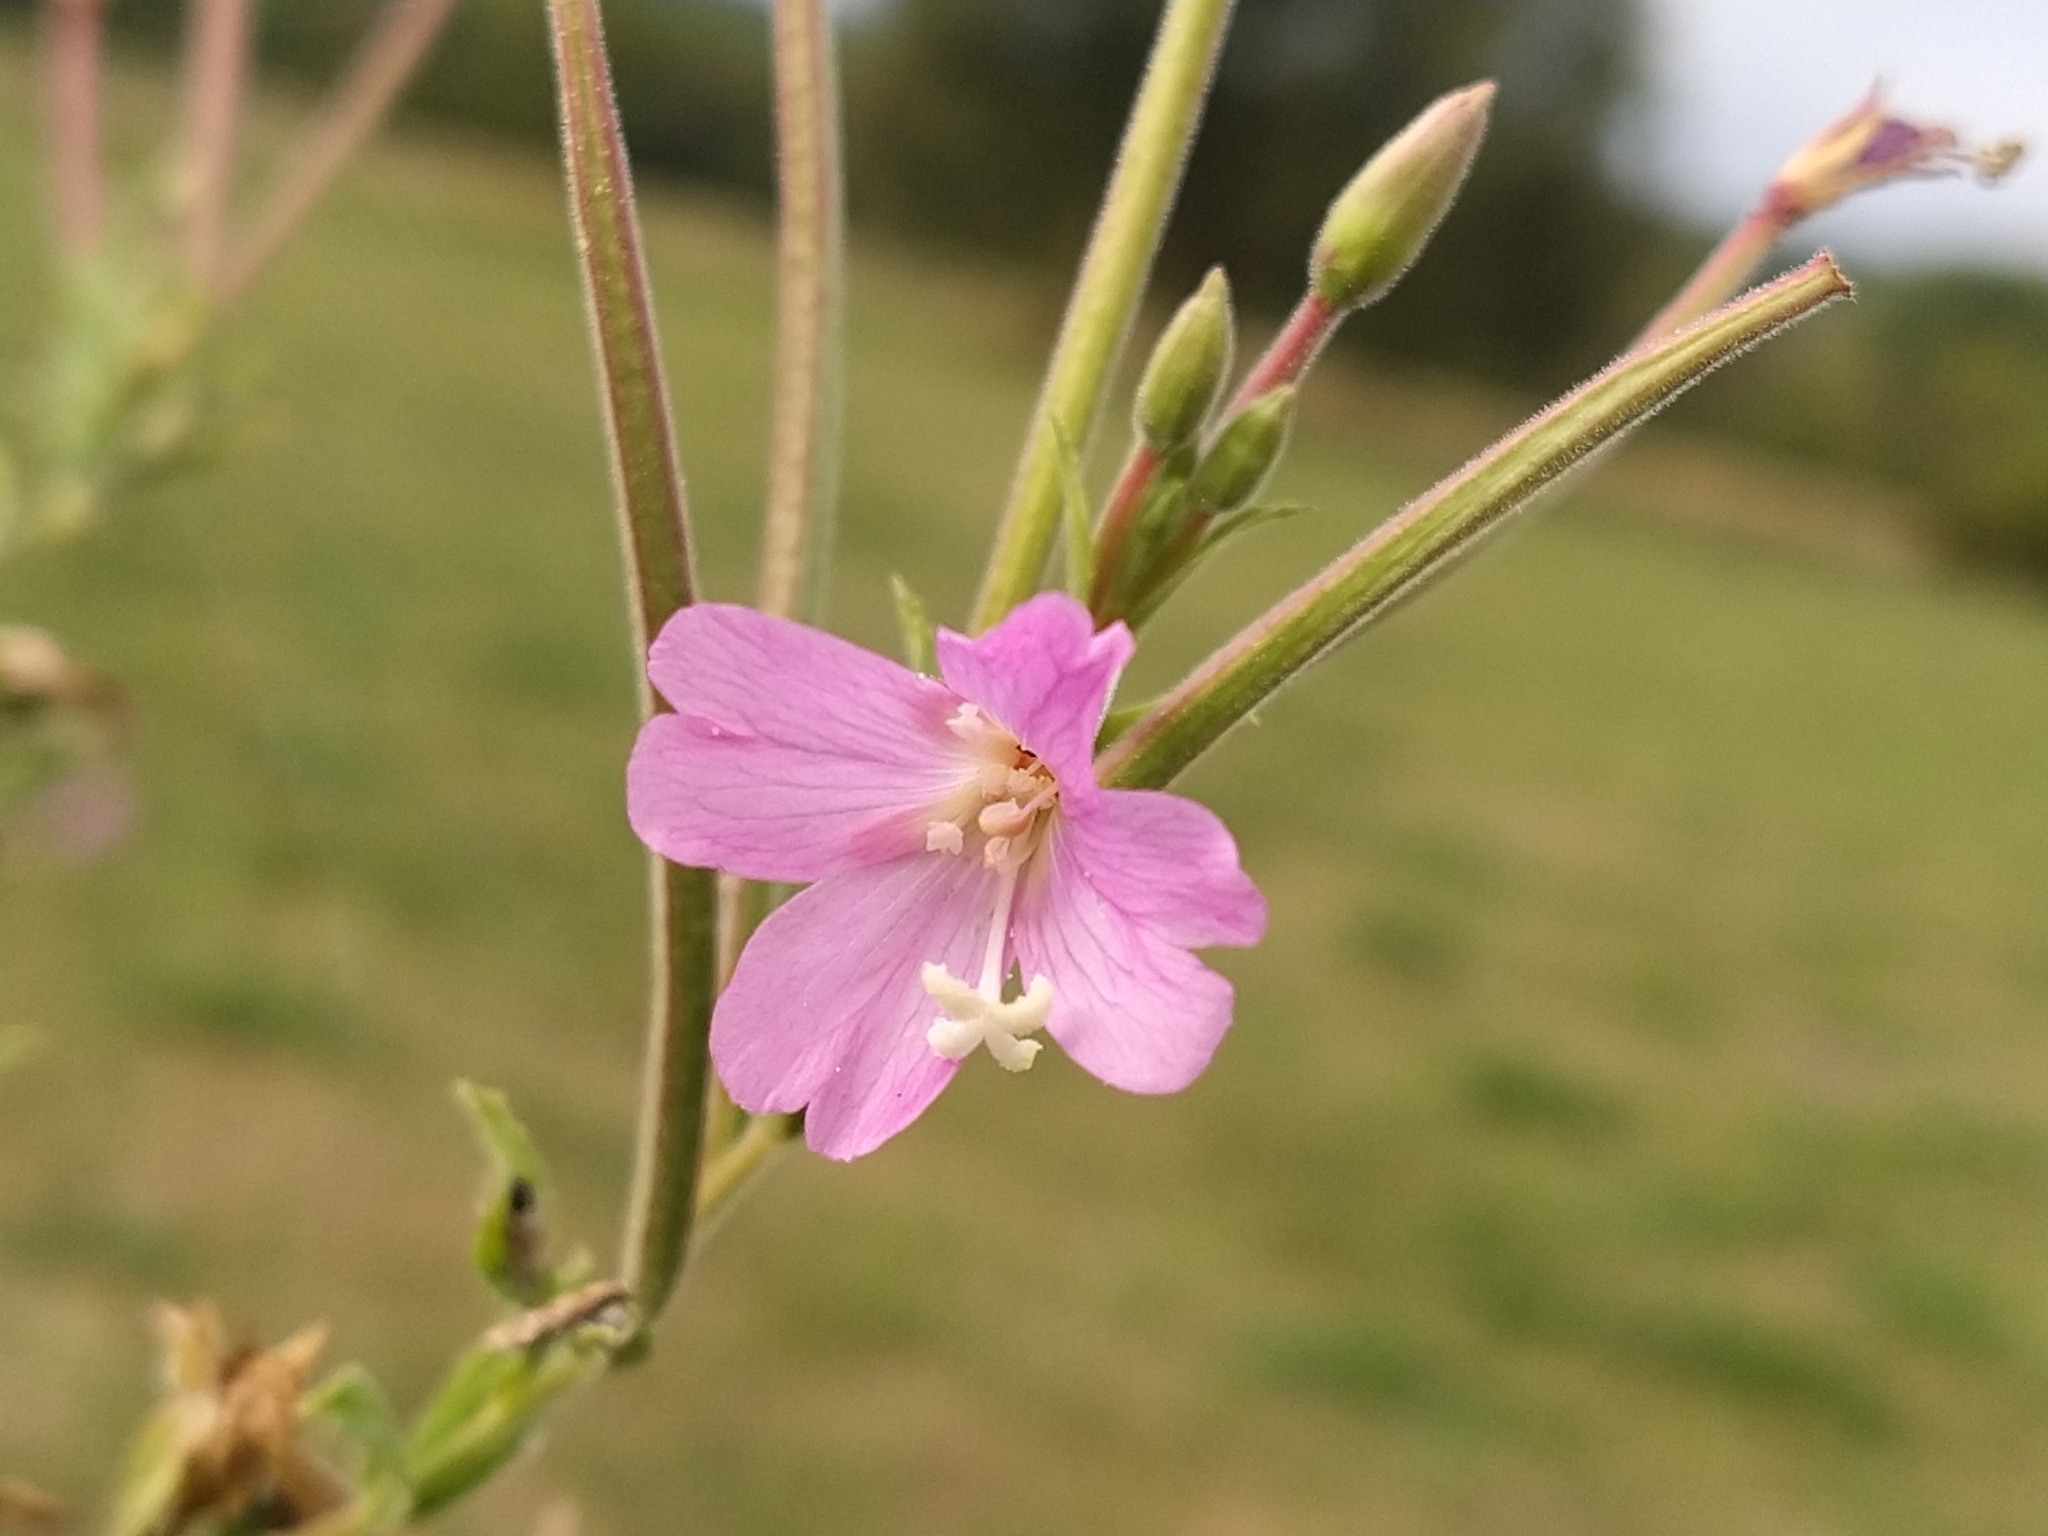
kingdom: Plantae
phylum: Tracheophyta
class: Magnoliopsida
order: Myrtales
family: Onagraceae
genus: Epilobium
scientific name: Epilobium hirsutum
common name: Great willowherb
